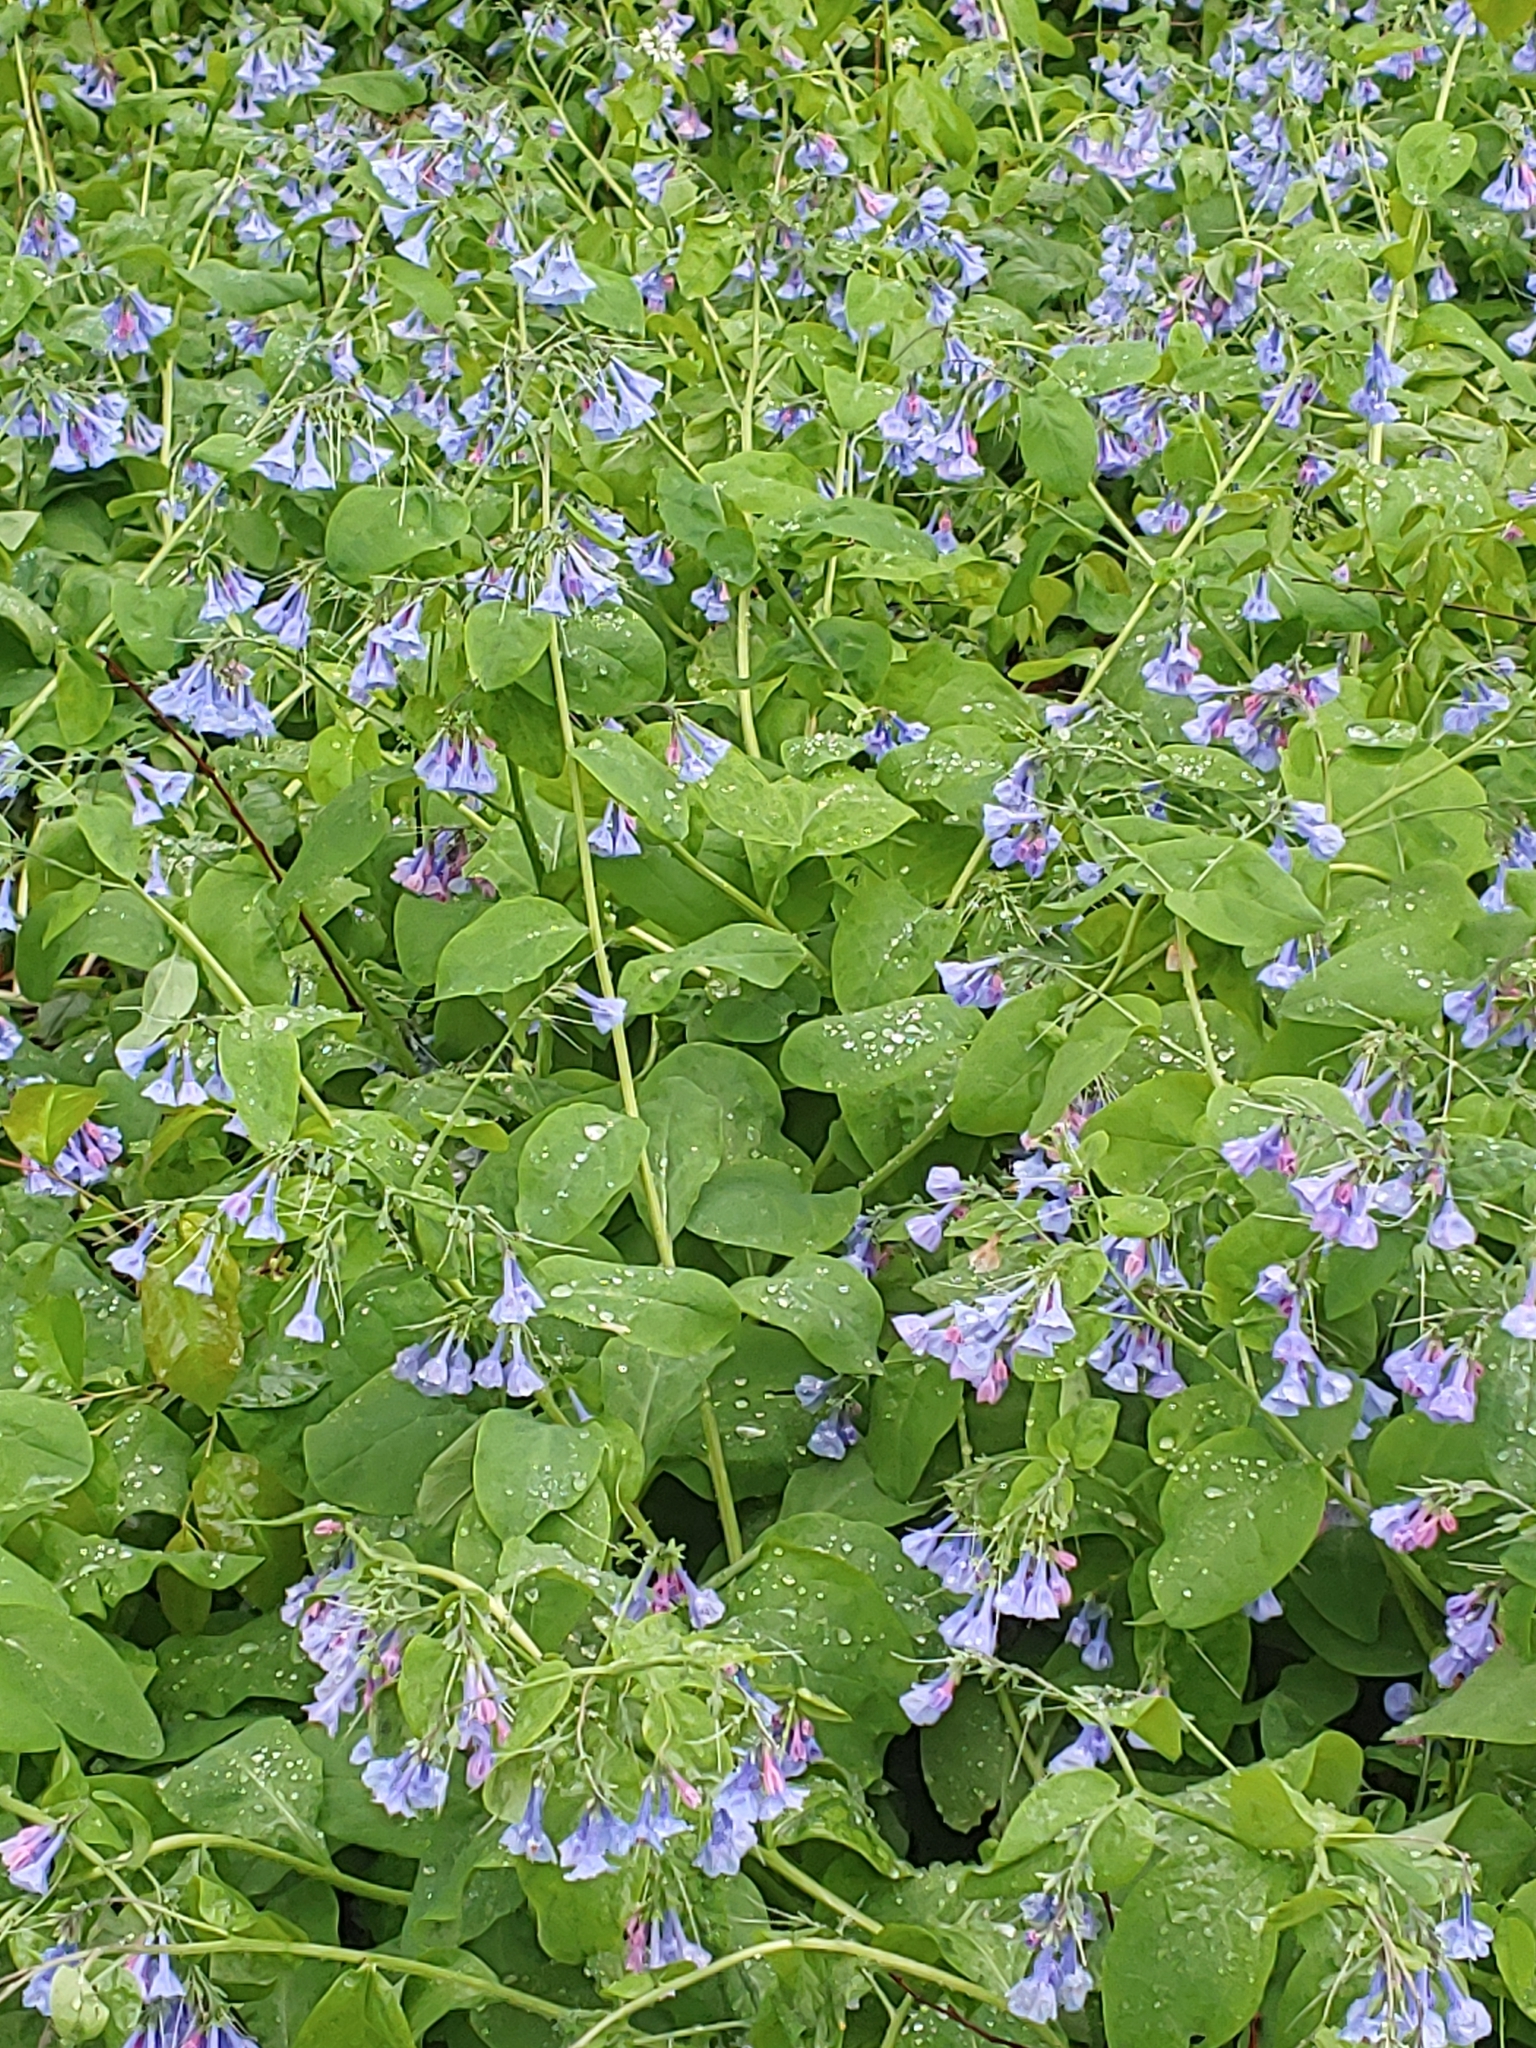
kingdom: Plantae
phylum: Tracheophyta
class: Magnoliopsida
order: Boraginales
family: Boraginaceae
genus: Mertensia
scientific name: Mertensia virginica
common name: Virginia bluebells
